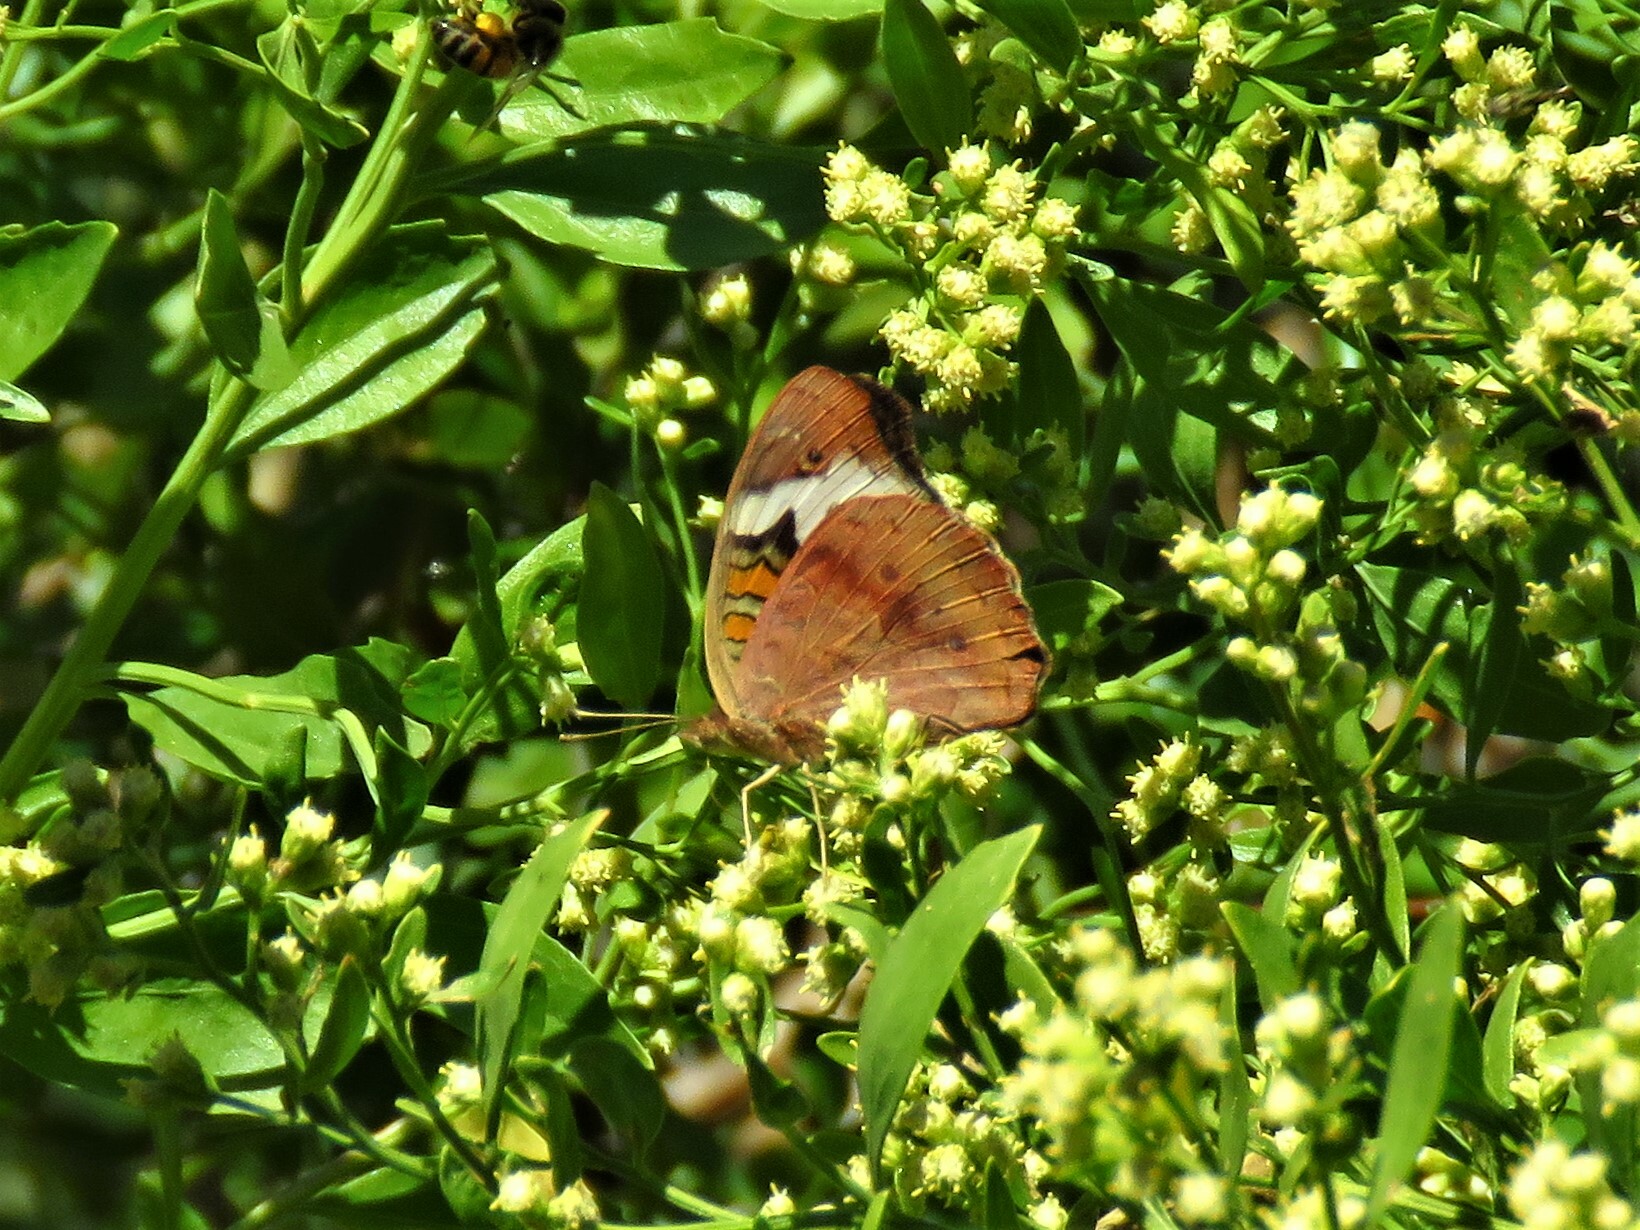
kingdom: Animalia
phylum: Arthropoda
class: Insecta
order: Lepidoptera
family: Nymphalidae
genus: Junonia
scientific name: Junonia coenia
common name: Common buckeye
